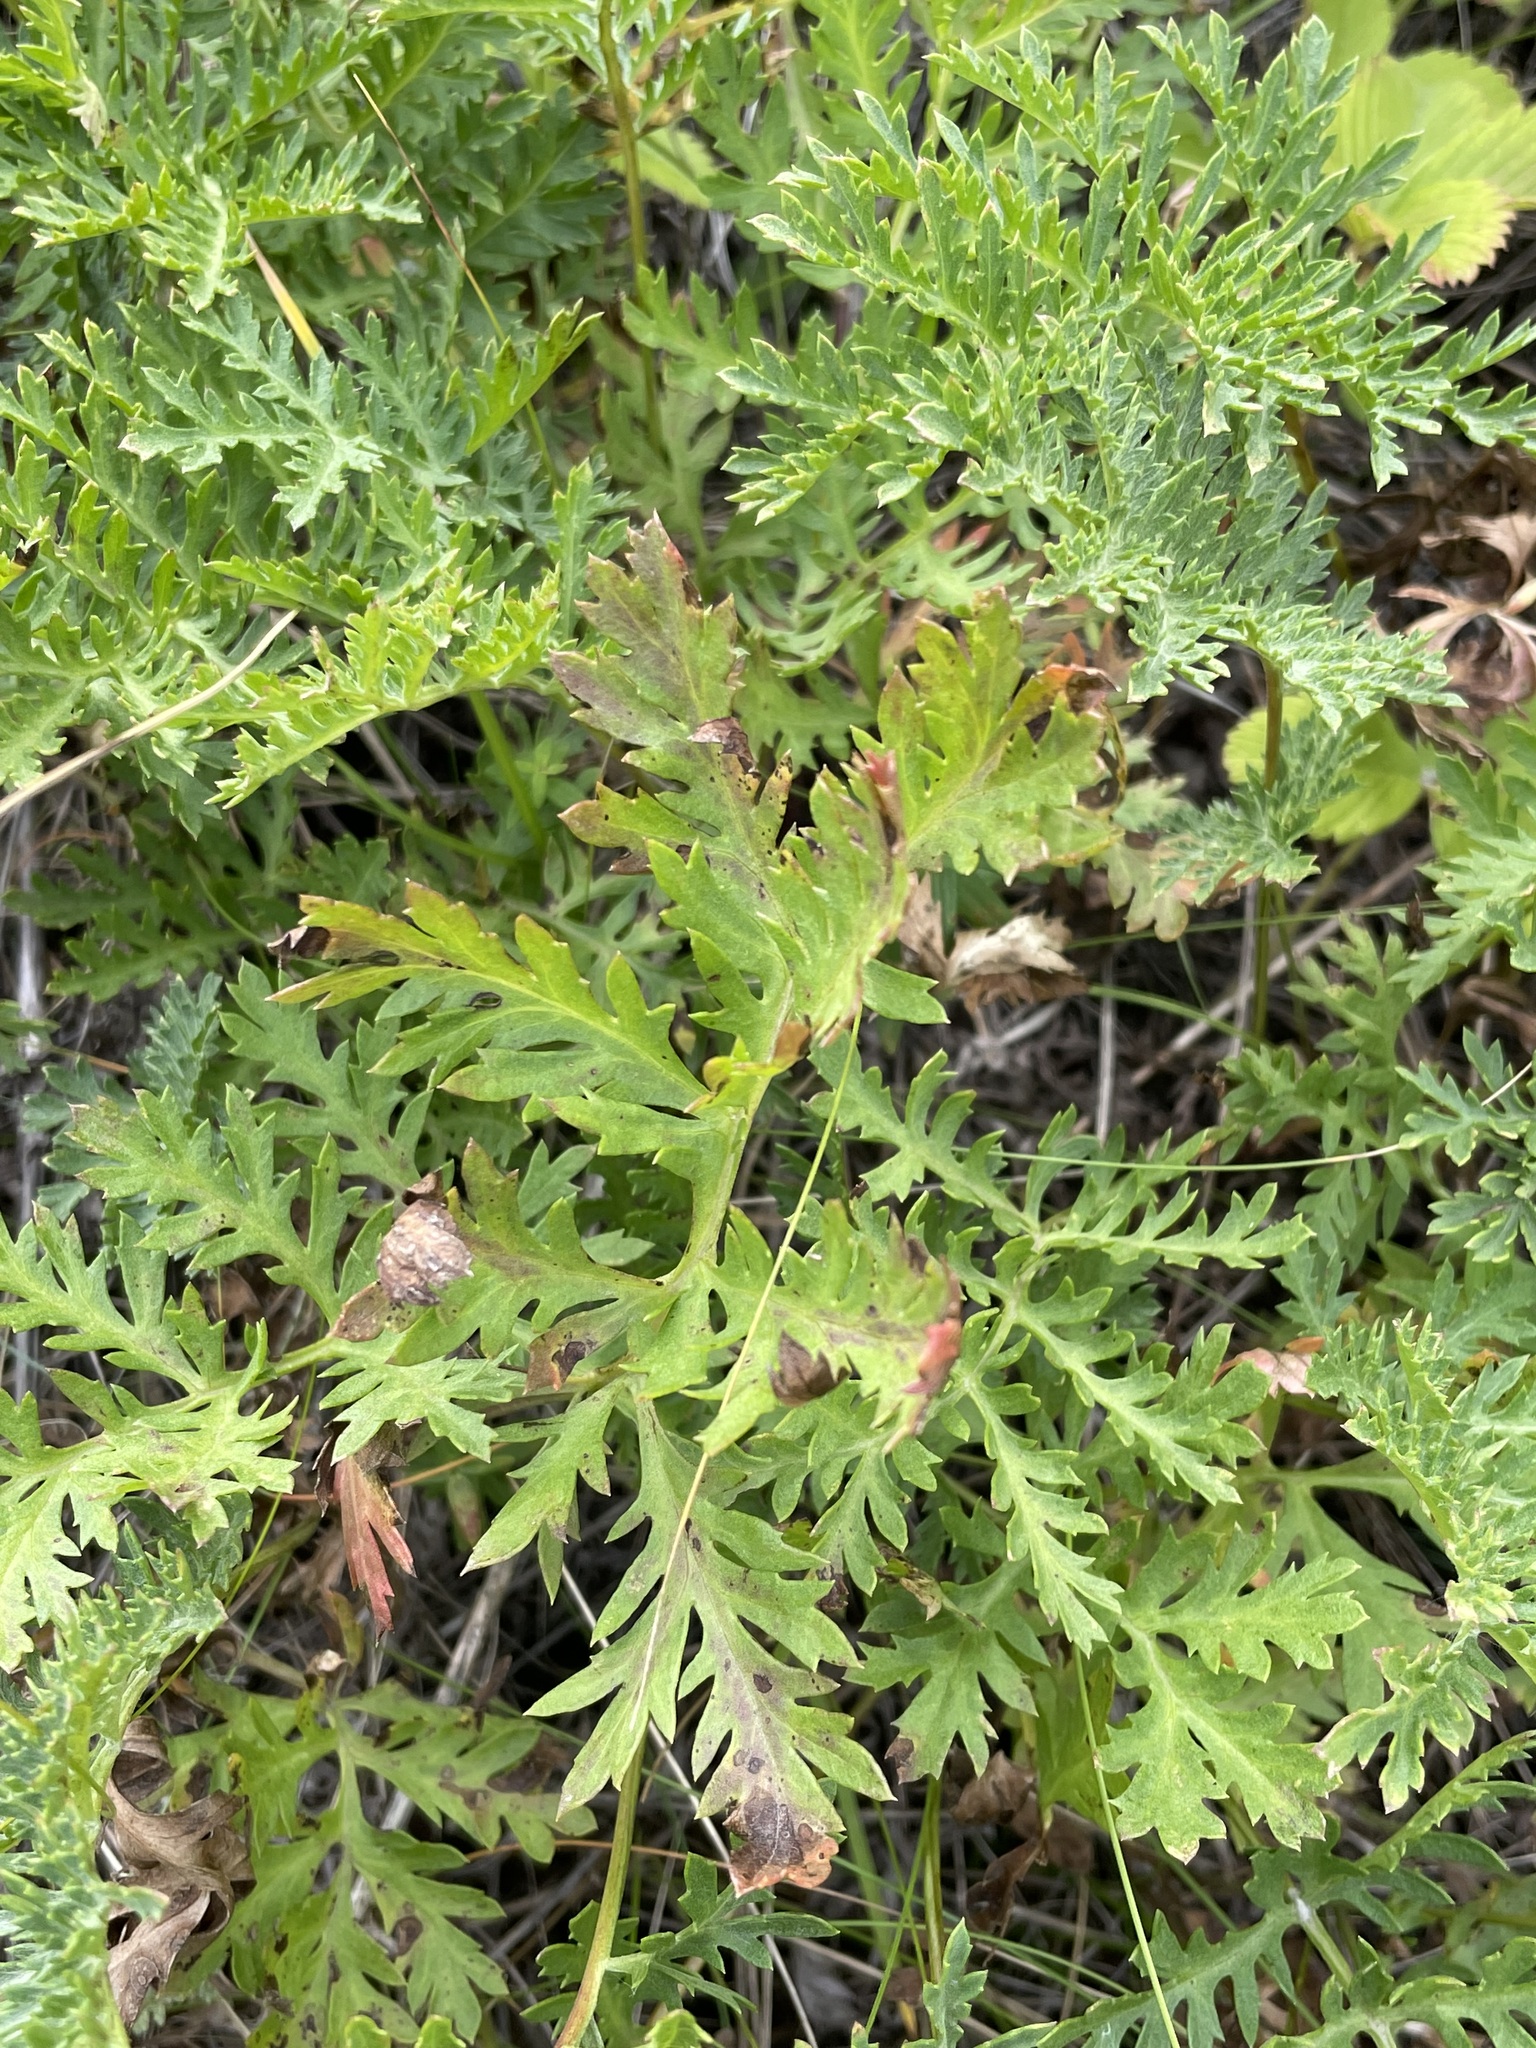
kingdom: Plantae
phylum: Tracheophyta
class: Magnoliopsida
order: Asterales
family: Asteraceae
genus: Artemisia
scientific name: Artemisia latifolia
